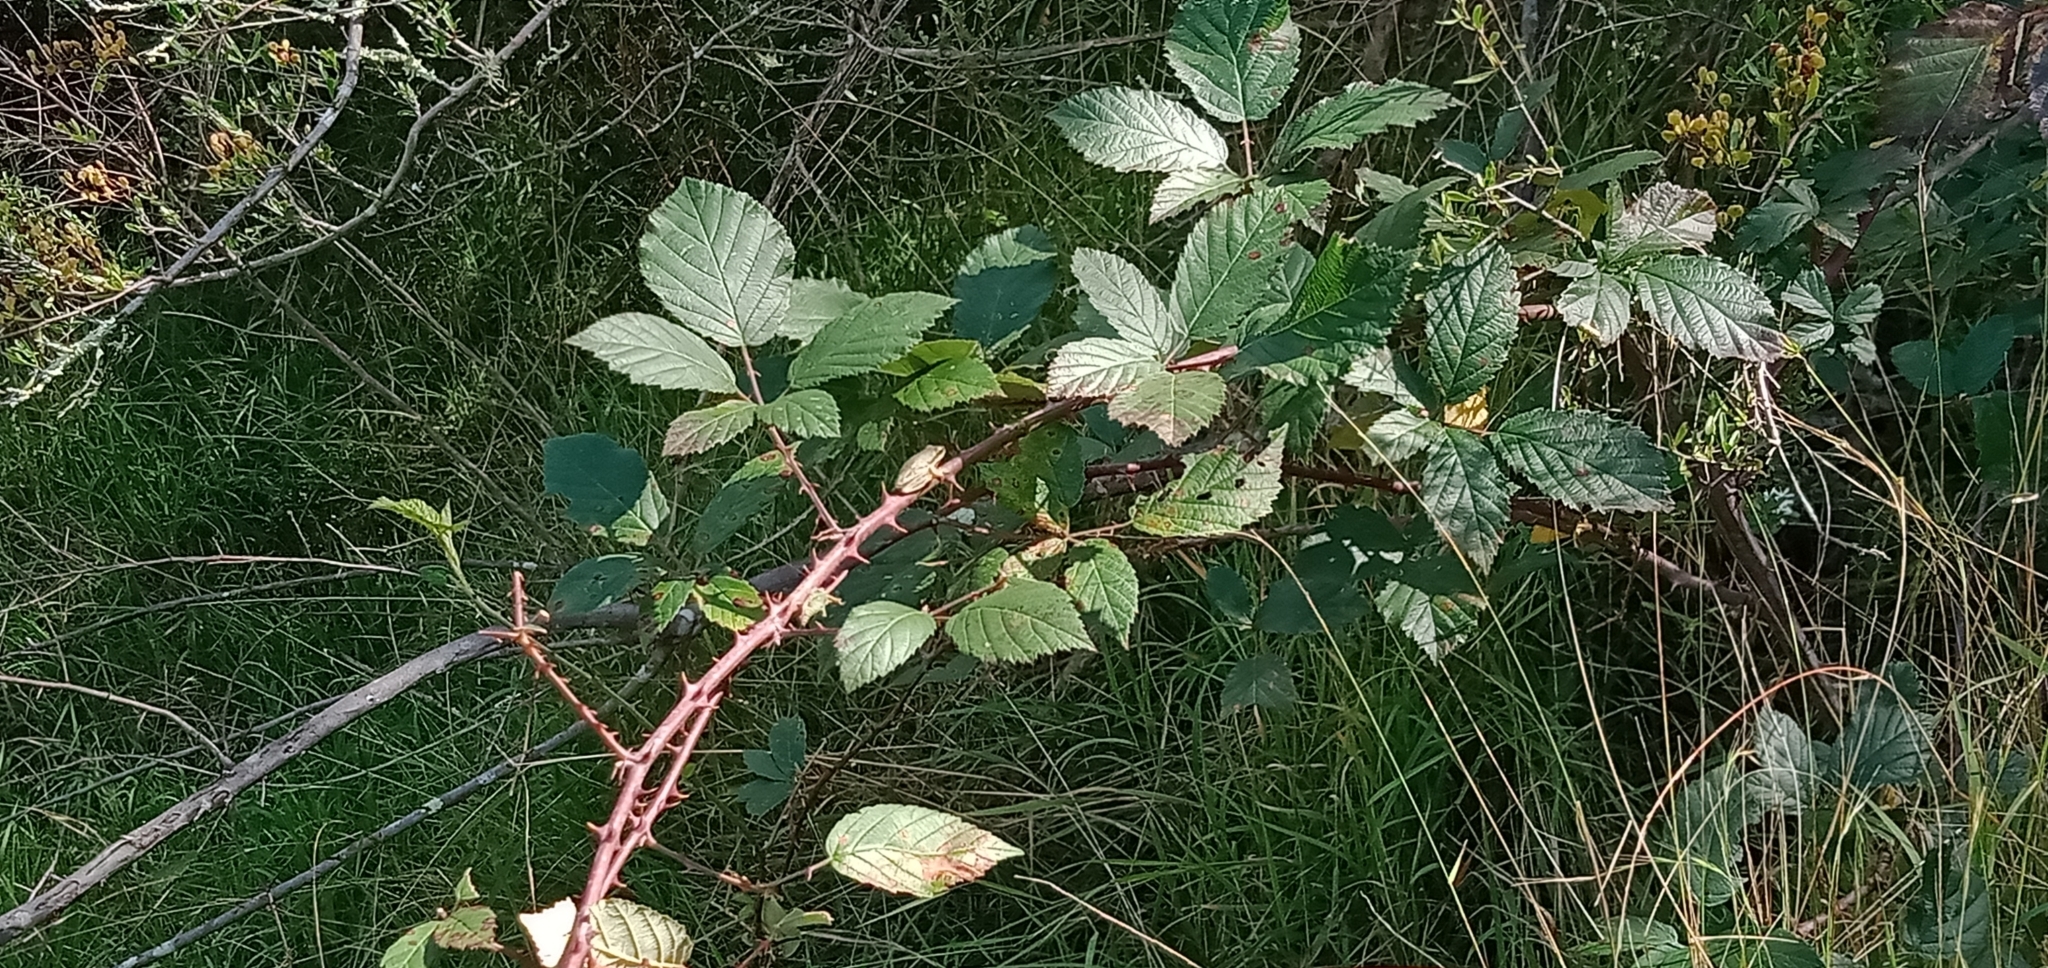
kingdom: Animalia
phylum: Chordata
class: Amphibia
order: Anura
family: Pelodryadidae
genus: Litoria
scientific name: Litoria fallax
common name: Eastern dwarf treefrog
